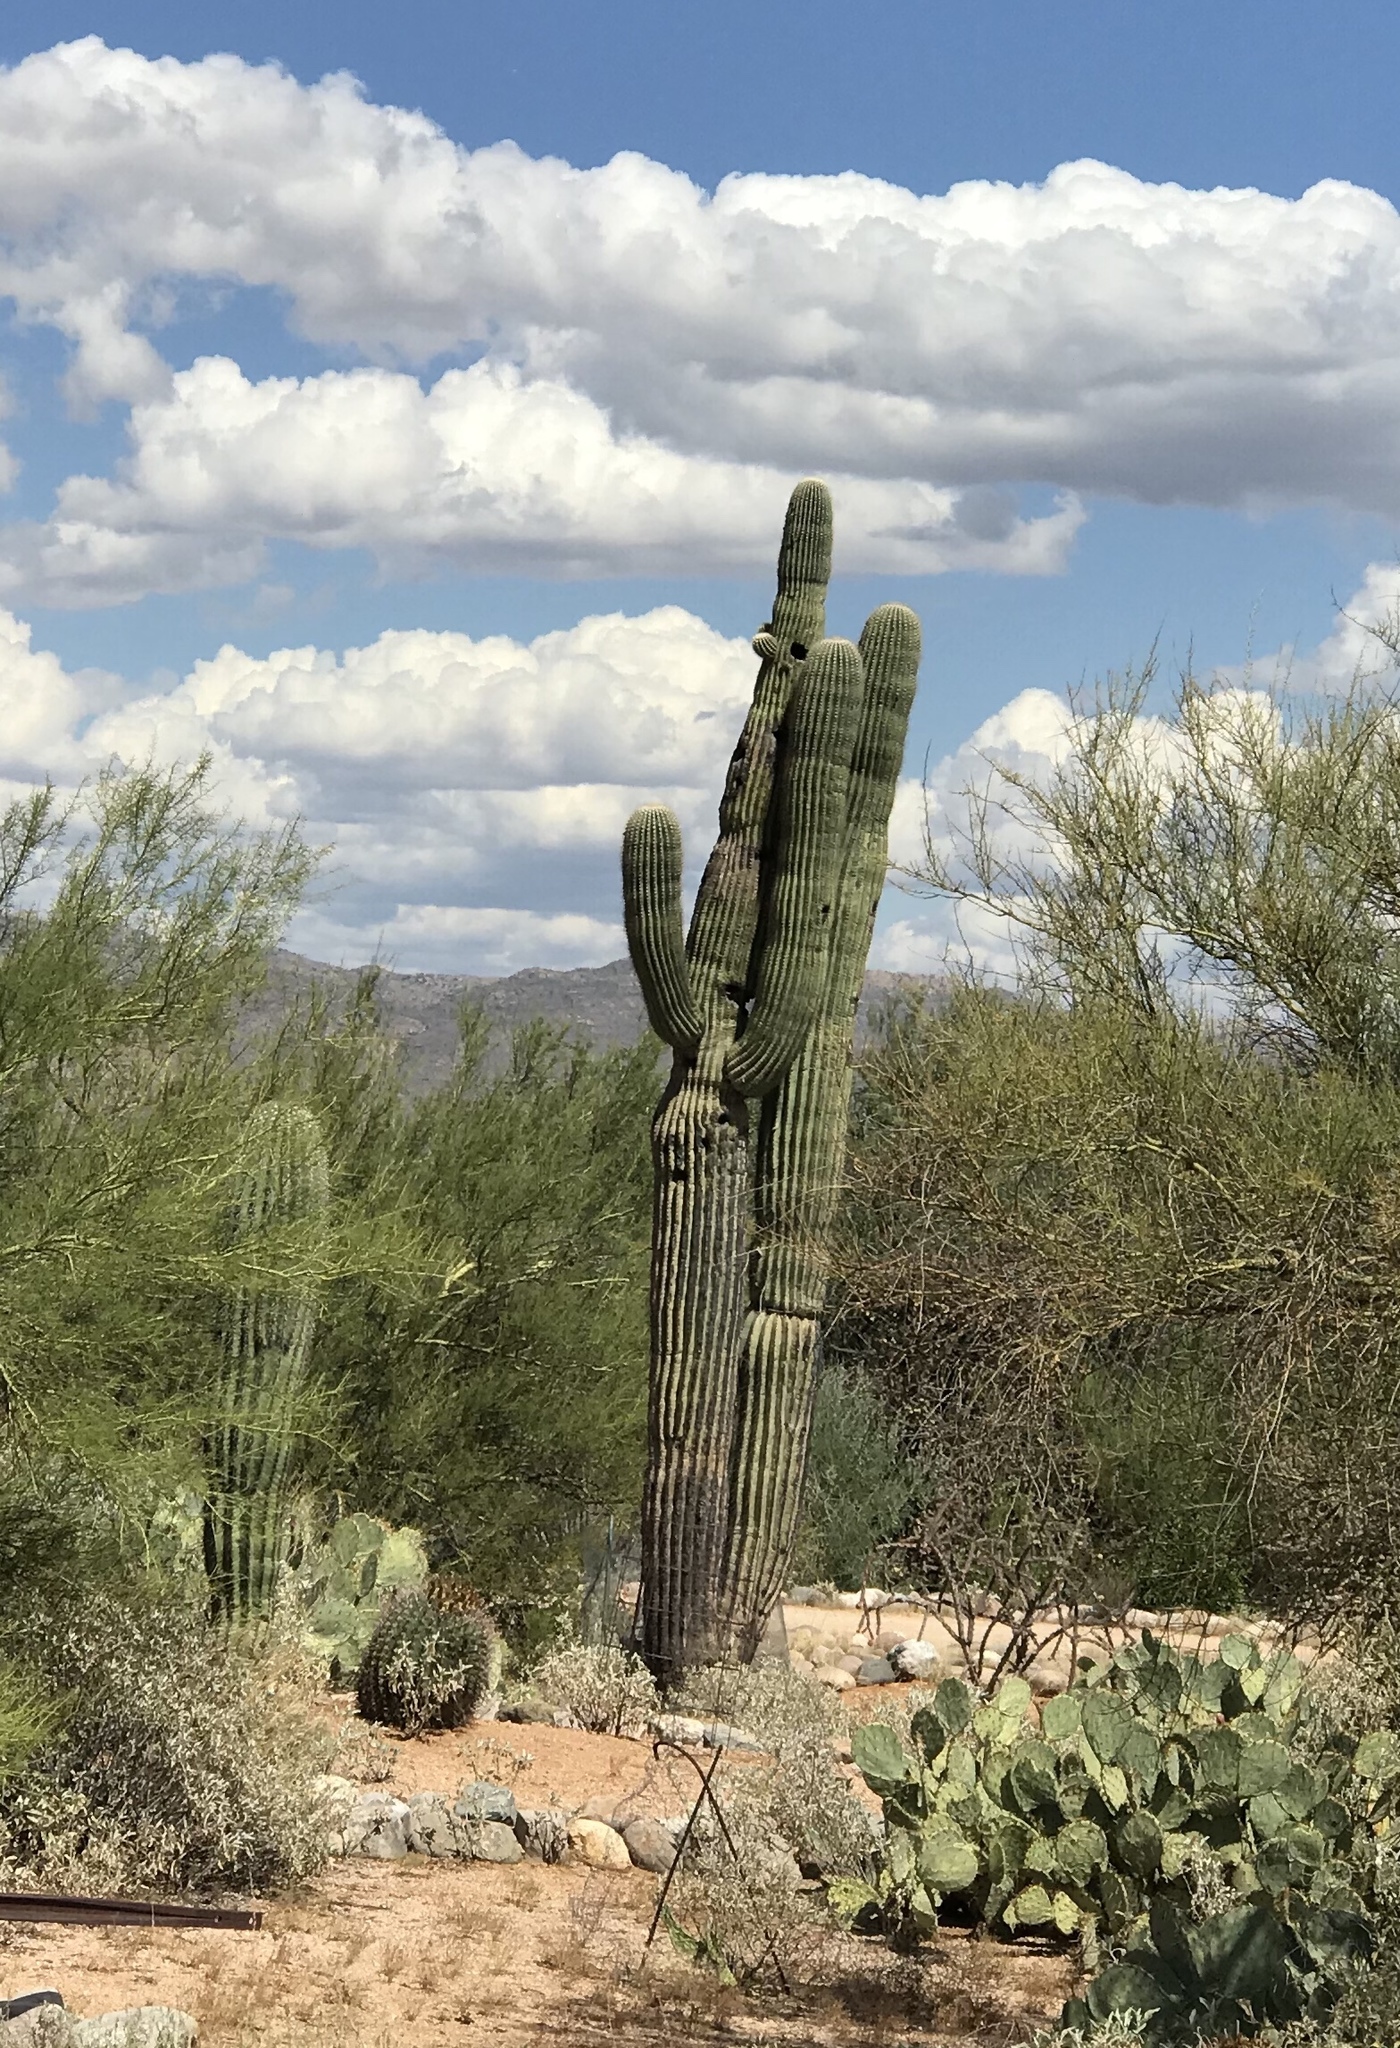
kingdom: Plantae
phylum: Tracheophyta
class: Magnoliopsida
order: Caryophyllales
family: Cactaceae
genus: Carnegiea
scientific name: Carnegiea gigantea
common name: Saguaro
